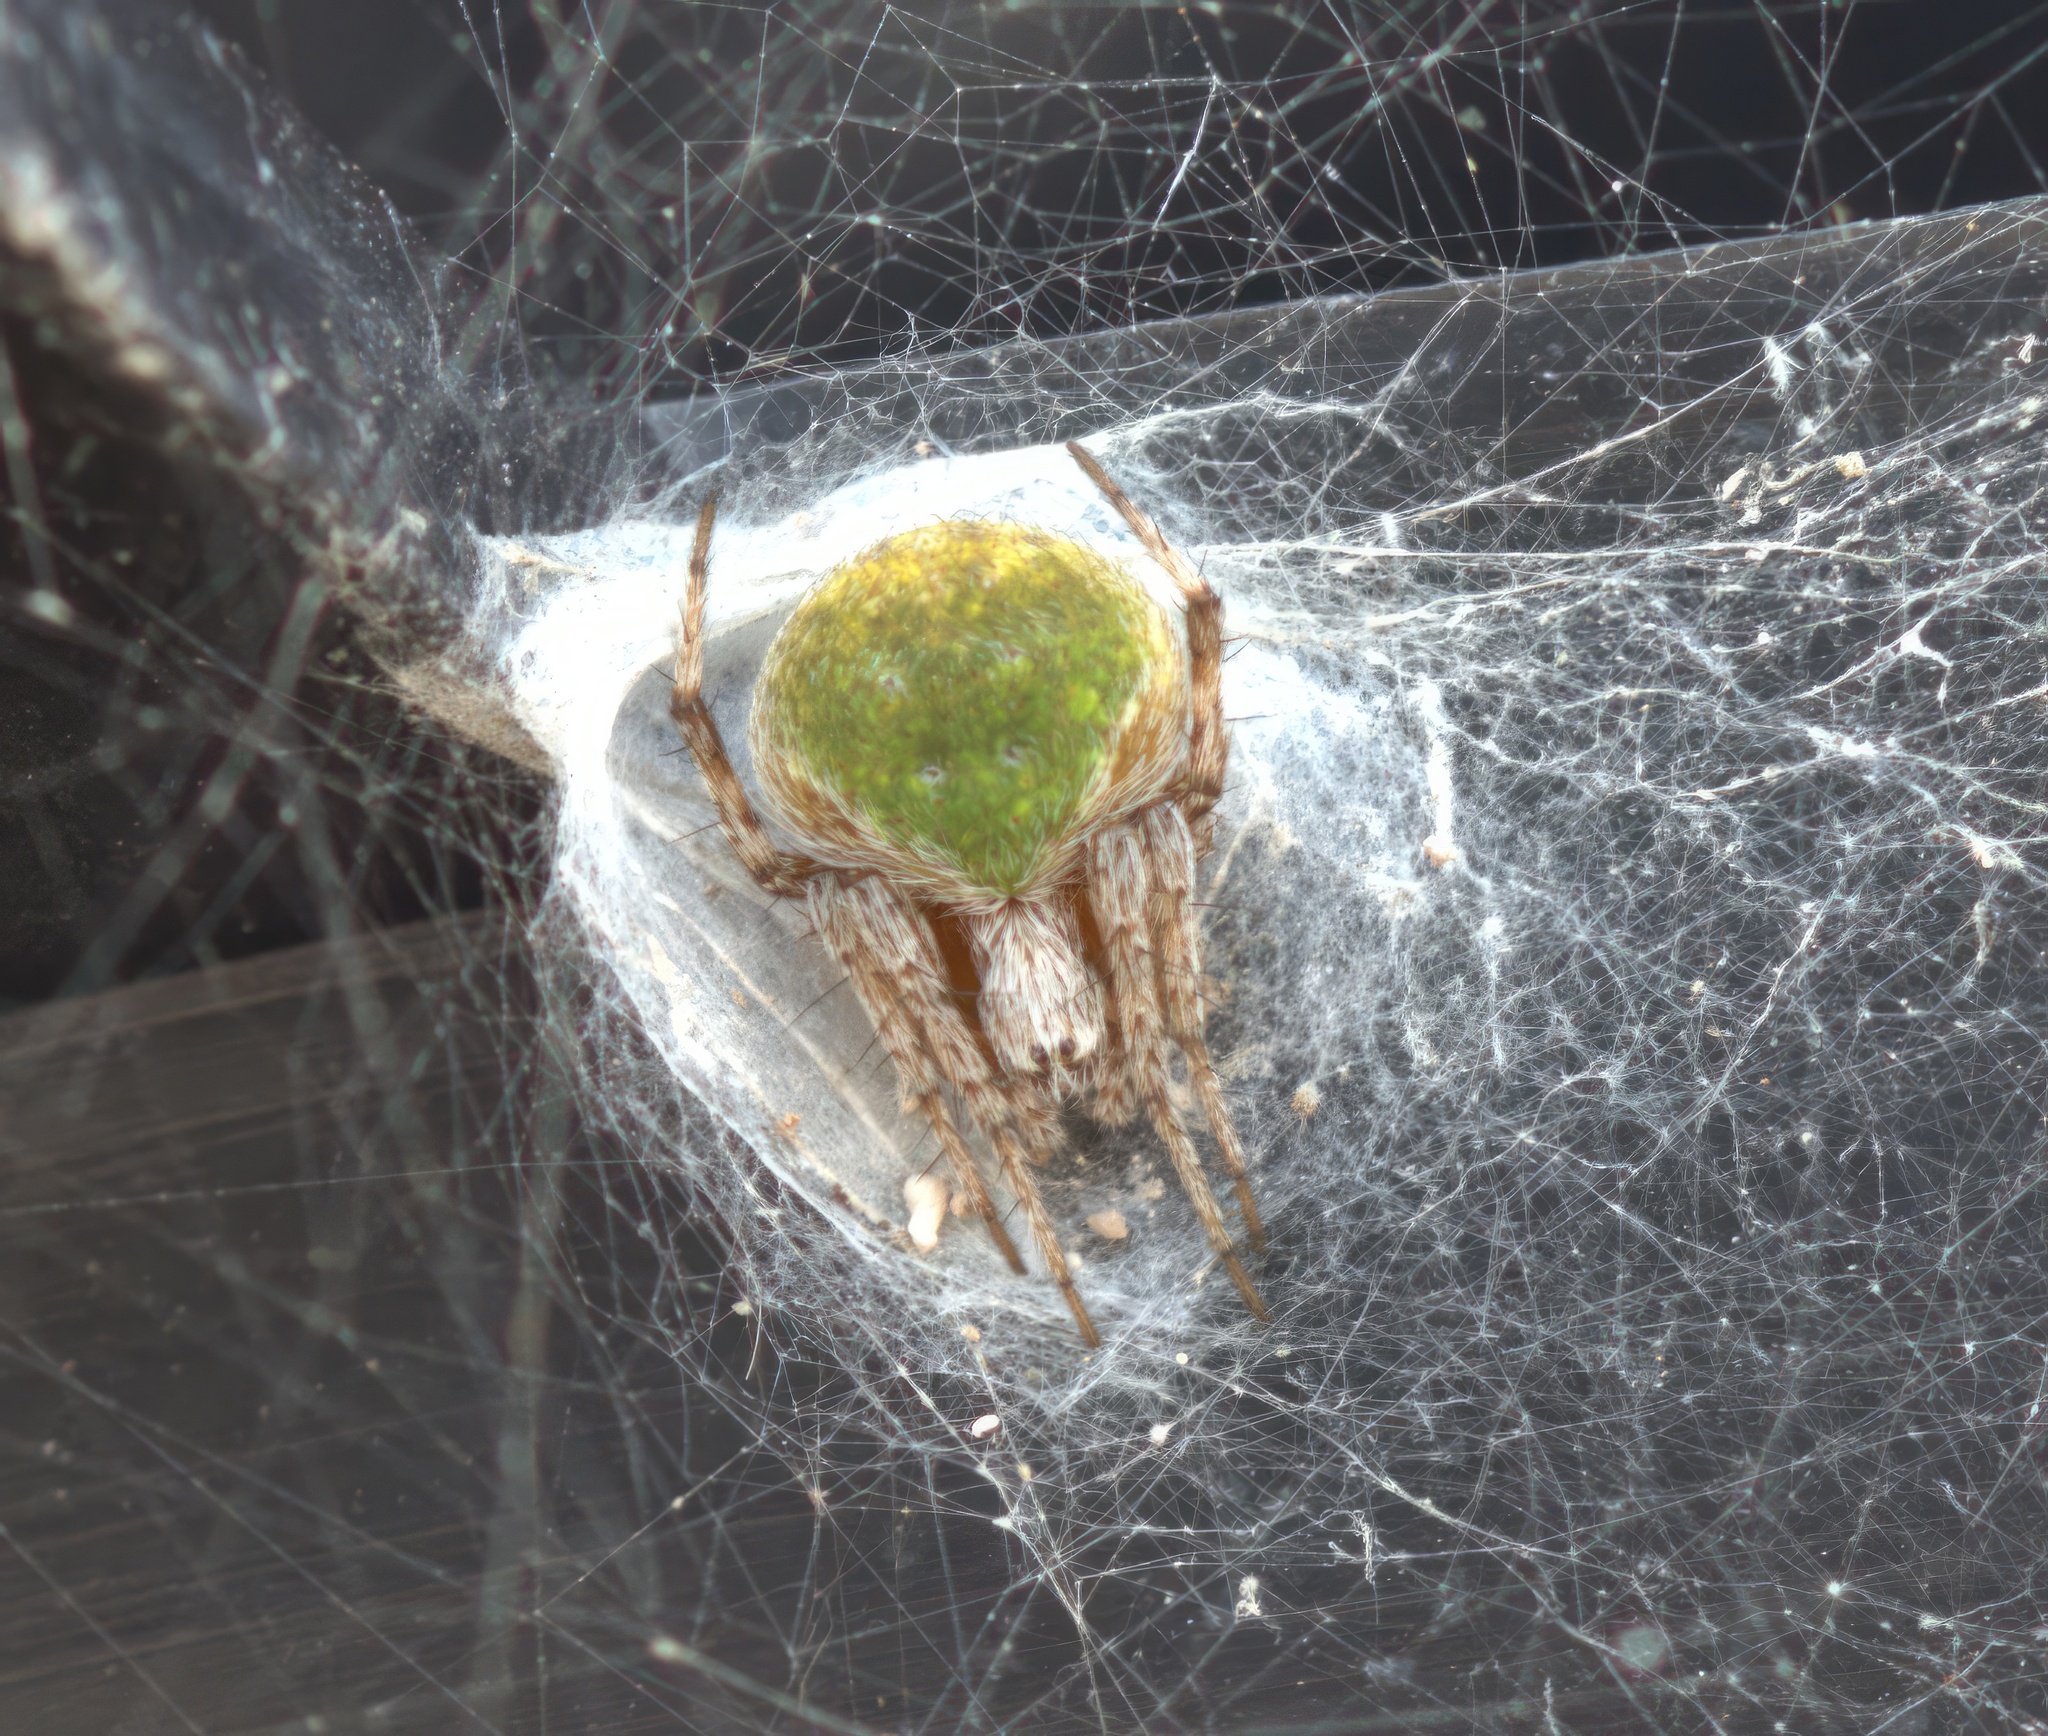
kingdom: Animalia
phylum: Arthropoda
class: Arachnida
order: Araneae
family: Araneidae
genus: Araneus
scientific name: Araneus detrimentosus
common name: Orb weavers
